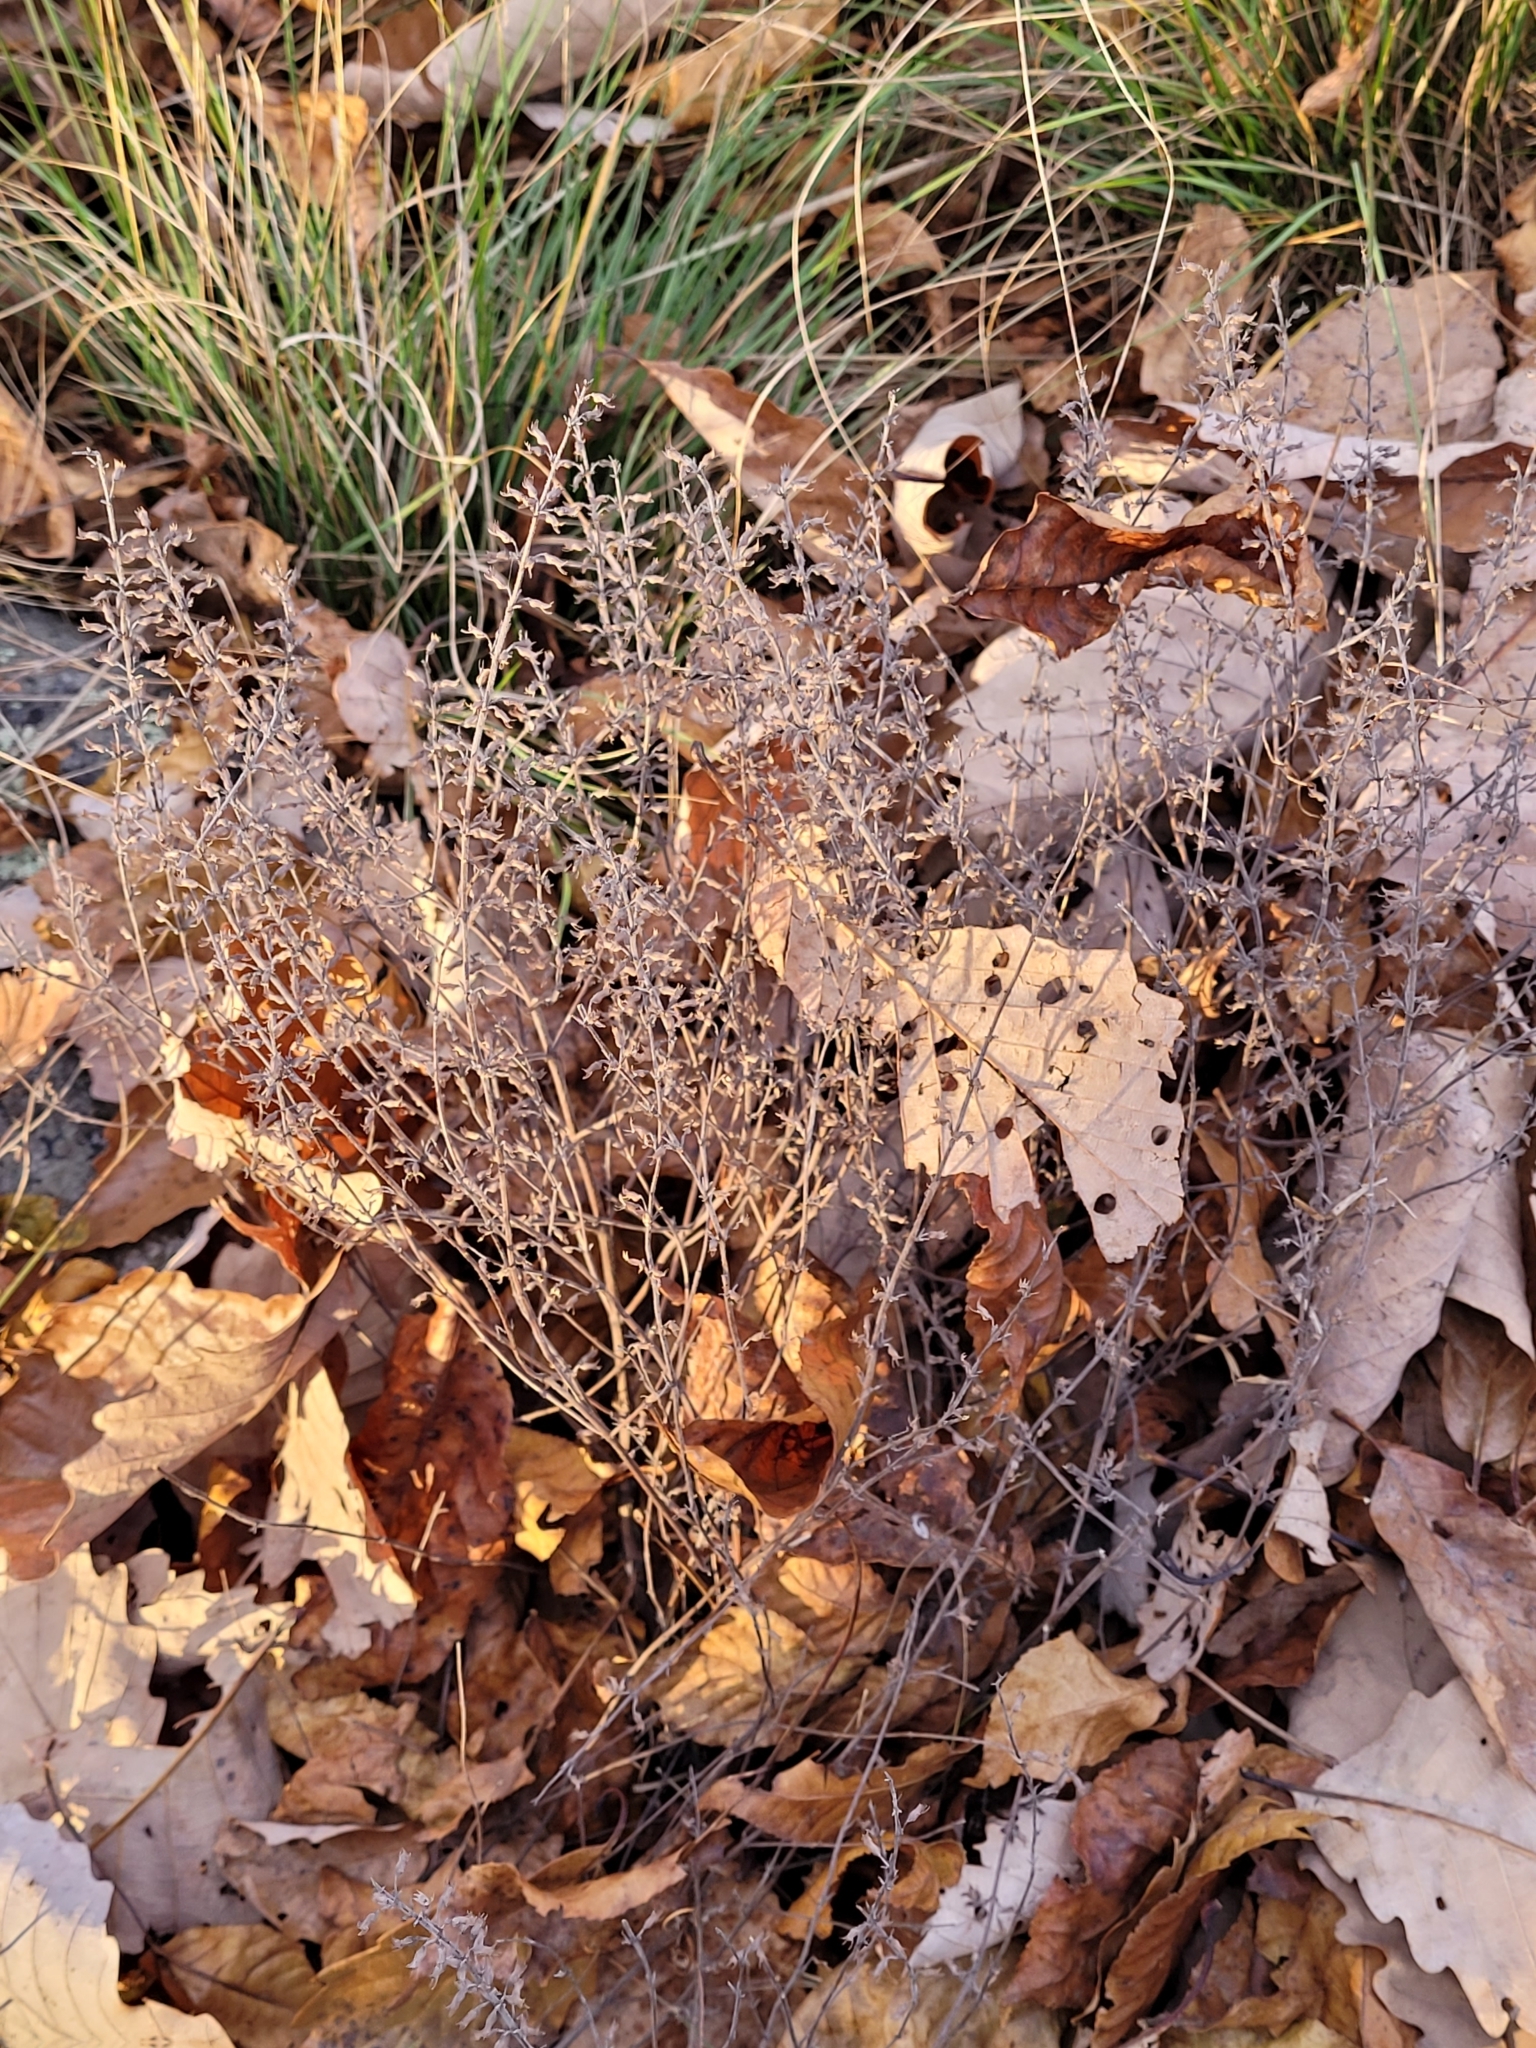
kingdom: Plantae
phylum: Tracheophyta
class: Magnoliopsida
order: Lamiales
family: Lamiaceae
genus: Hedeoma
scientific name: Hedeoma pulegioides
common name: American false pennyroyal
